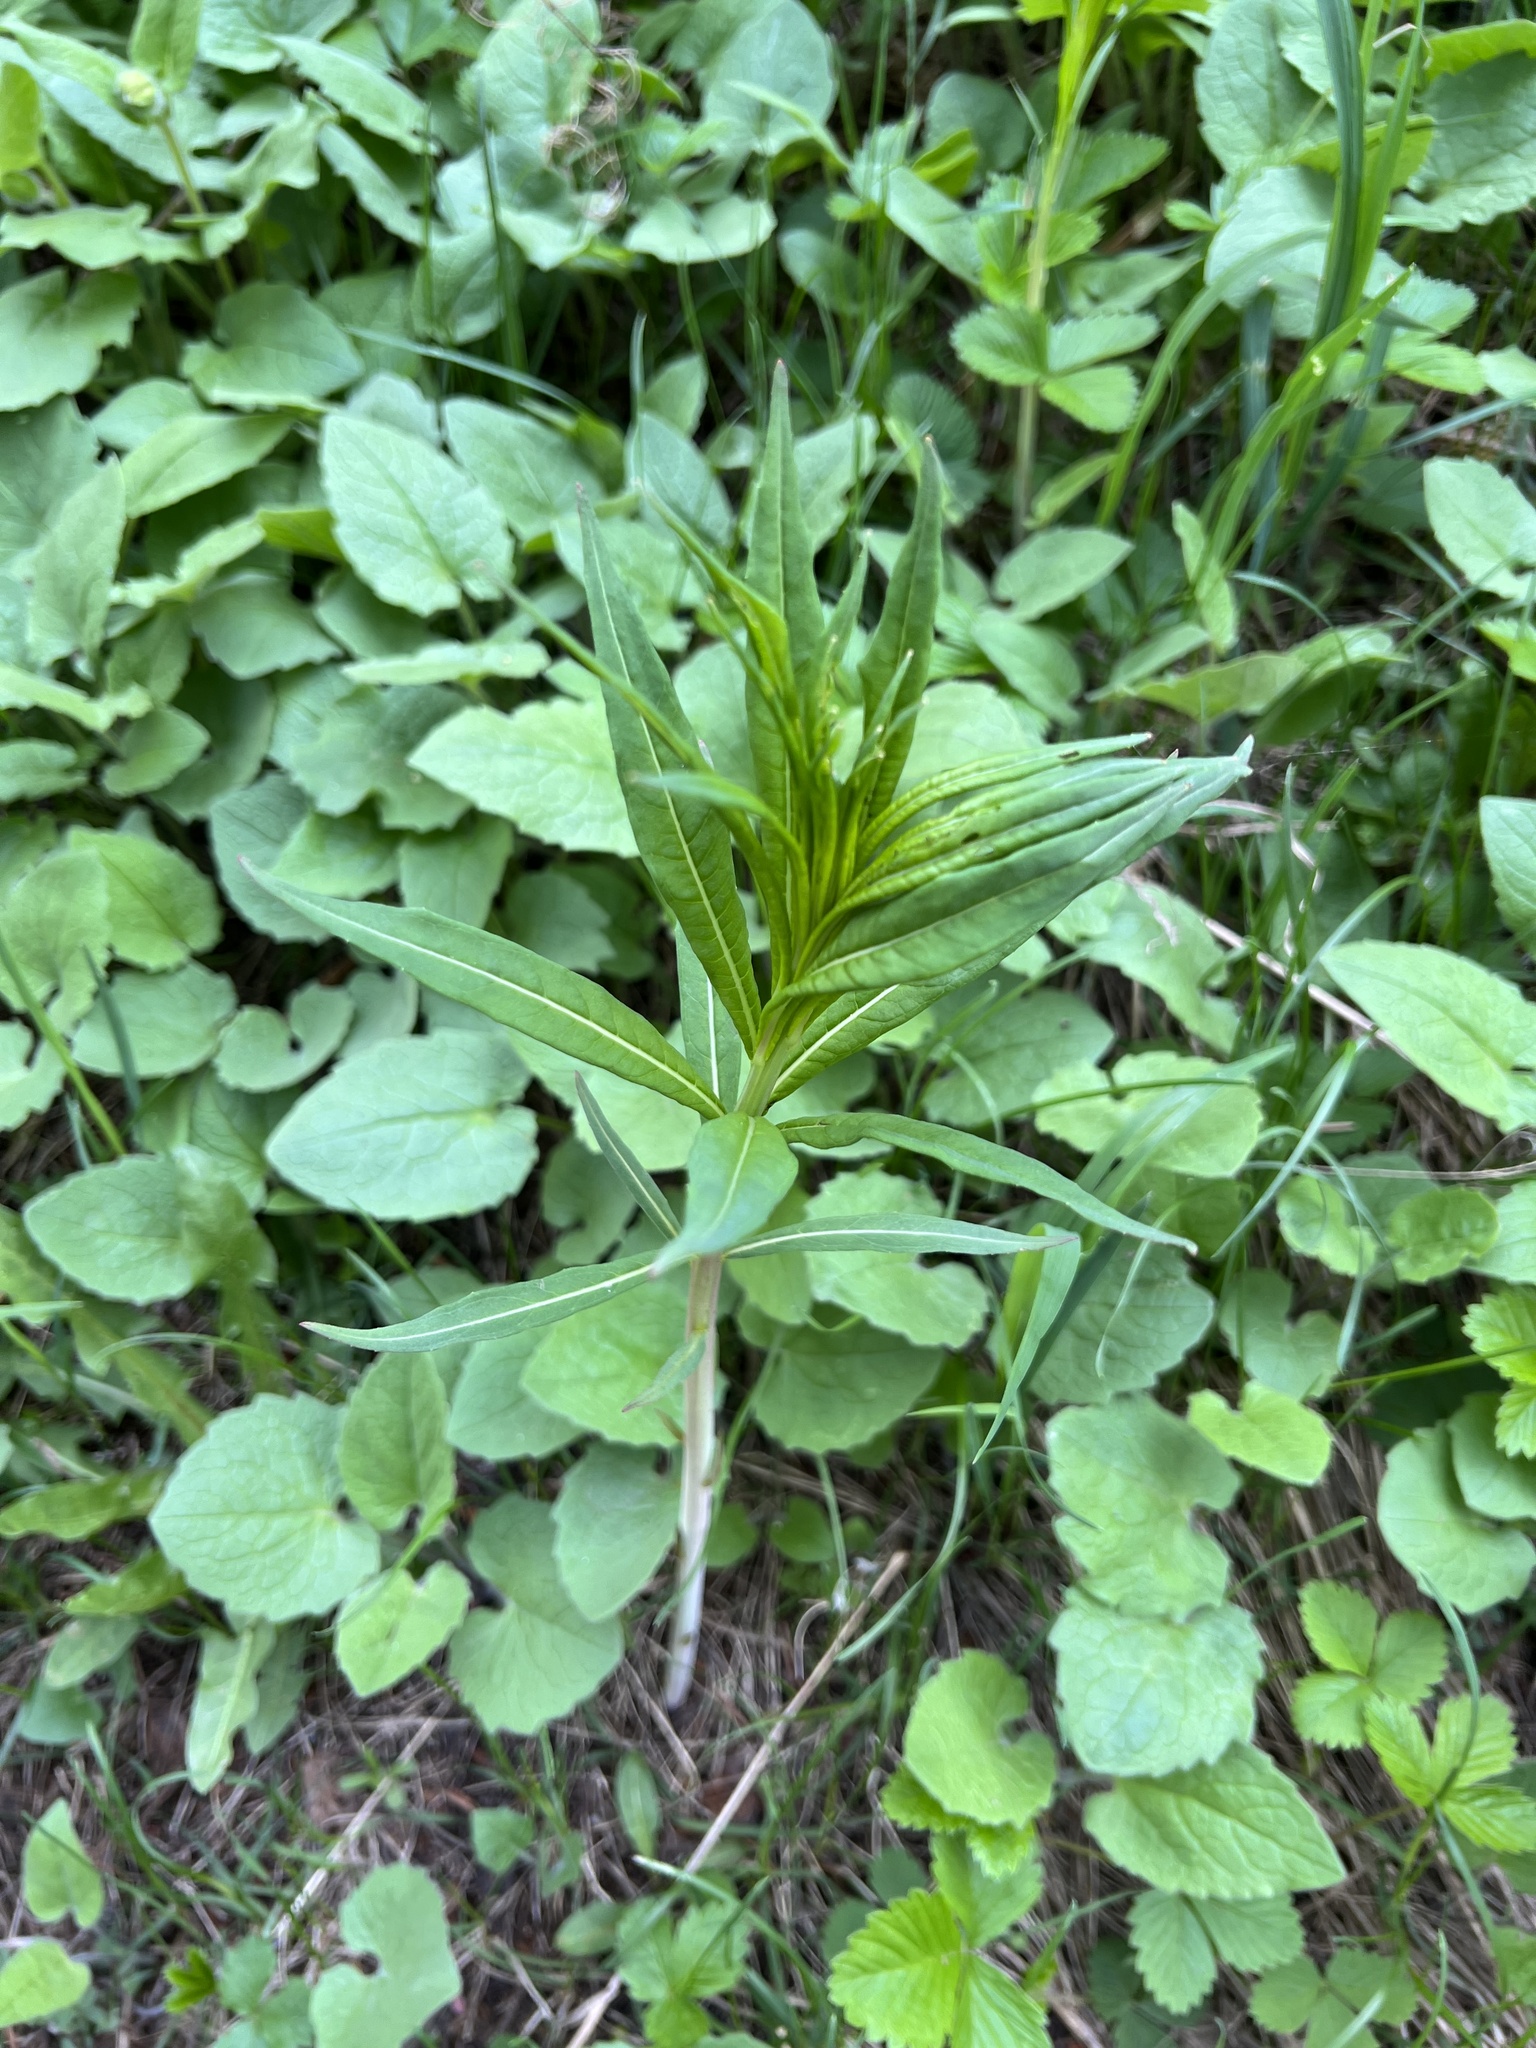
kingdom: Plantae
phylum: Tracheophyta
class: Magnoliopsida
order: Myrtales
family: Onagraceae
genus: Chamaenerion
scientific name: Chamaenerion angustifolium
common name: Fireweed
